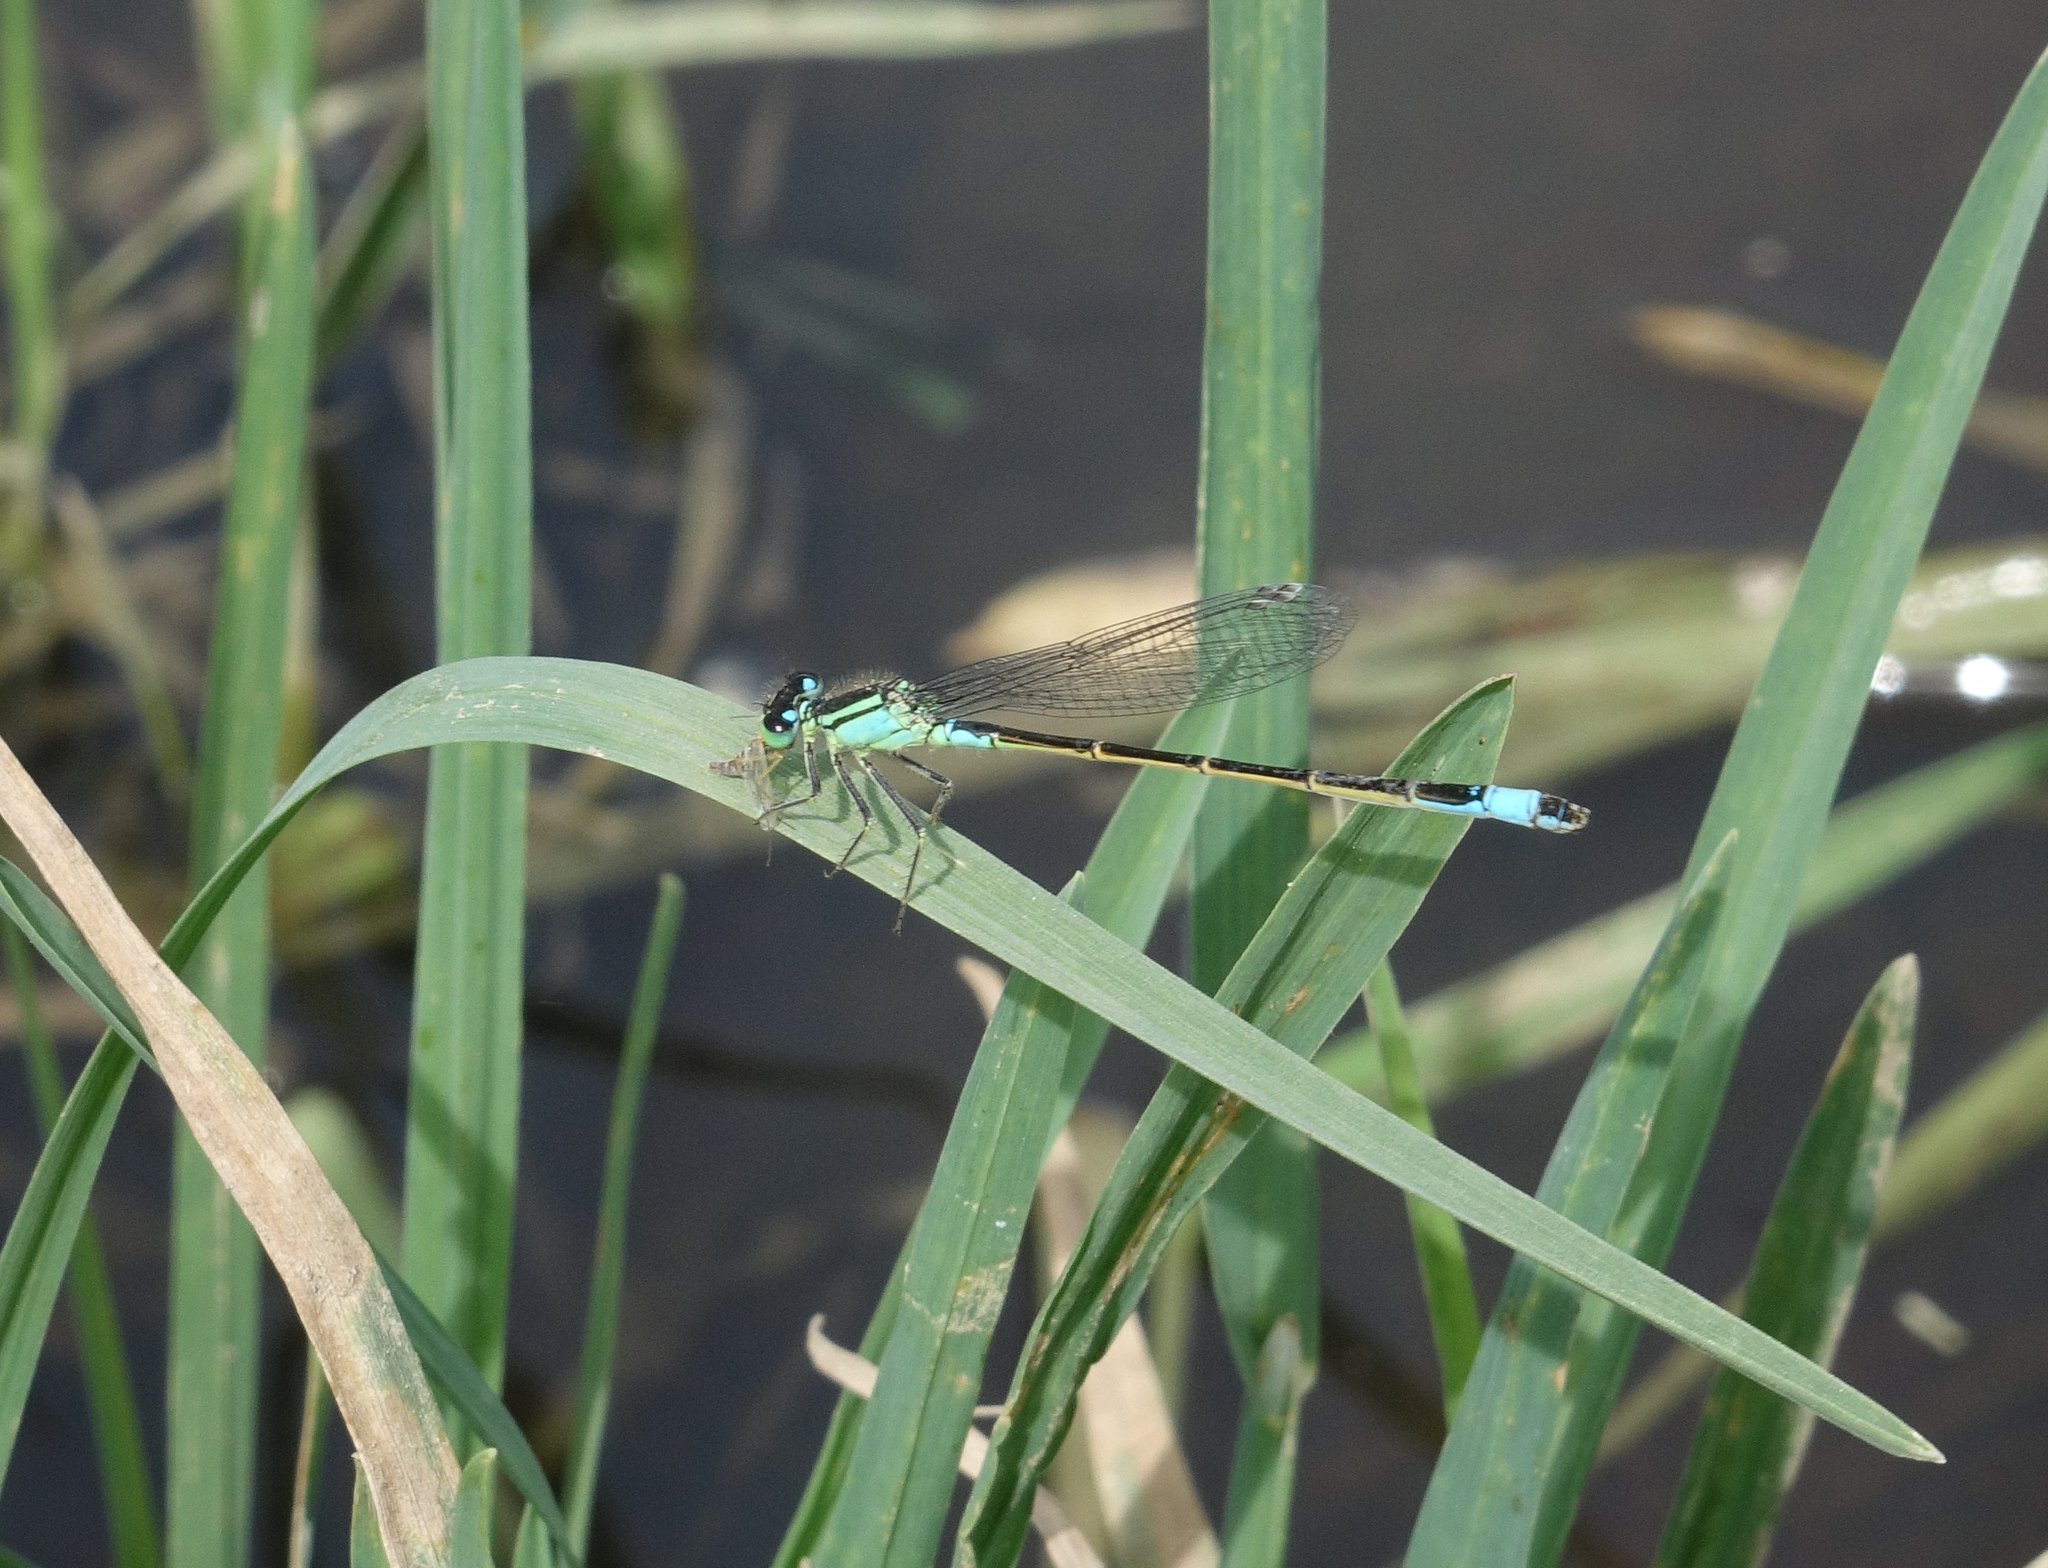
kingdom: Animalia
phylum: Arthropoda
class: Insecta
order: Odonata
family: Coenagrionidae
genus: Ischnura
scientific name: Ischnura elegans
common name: Blue-tailed damselfly
